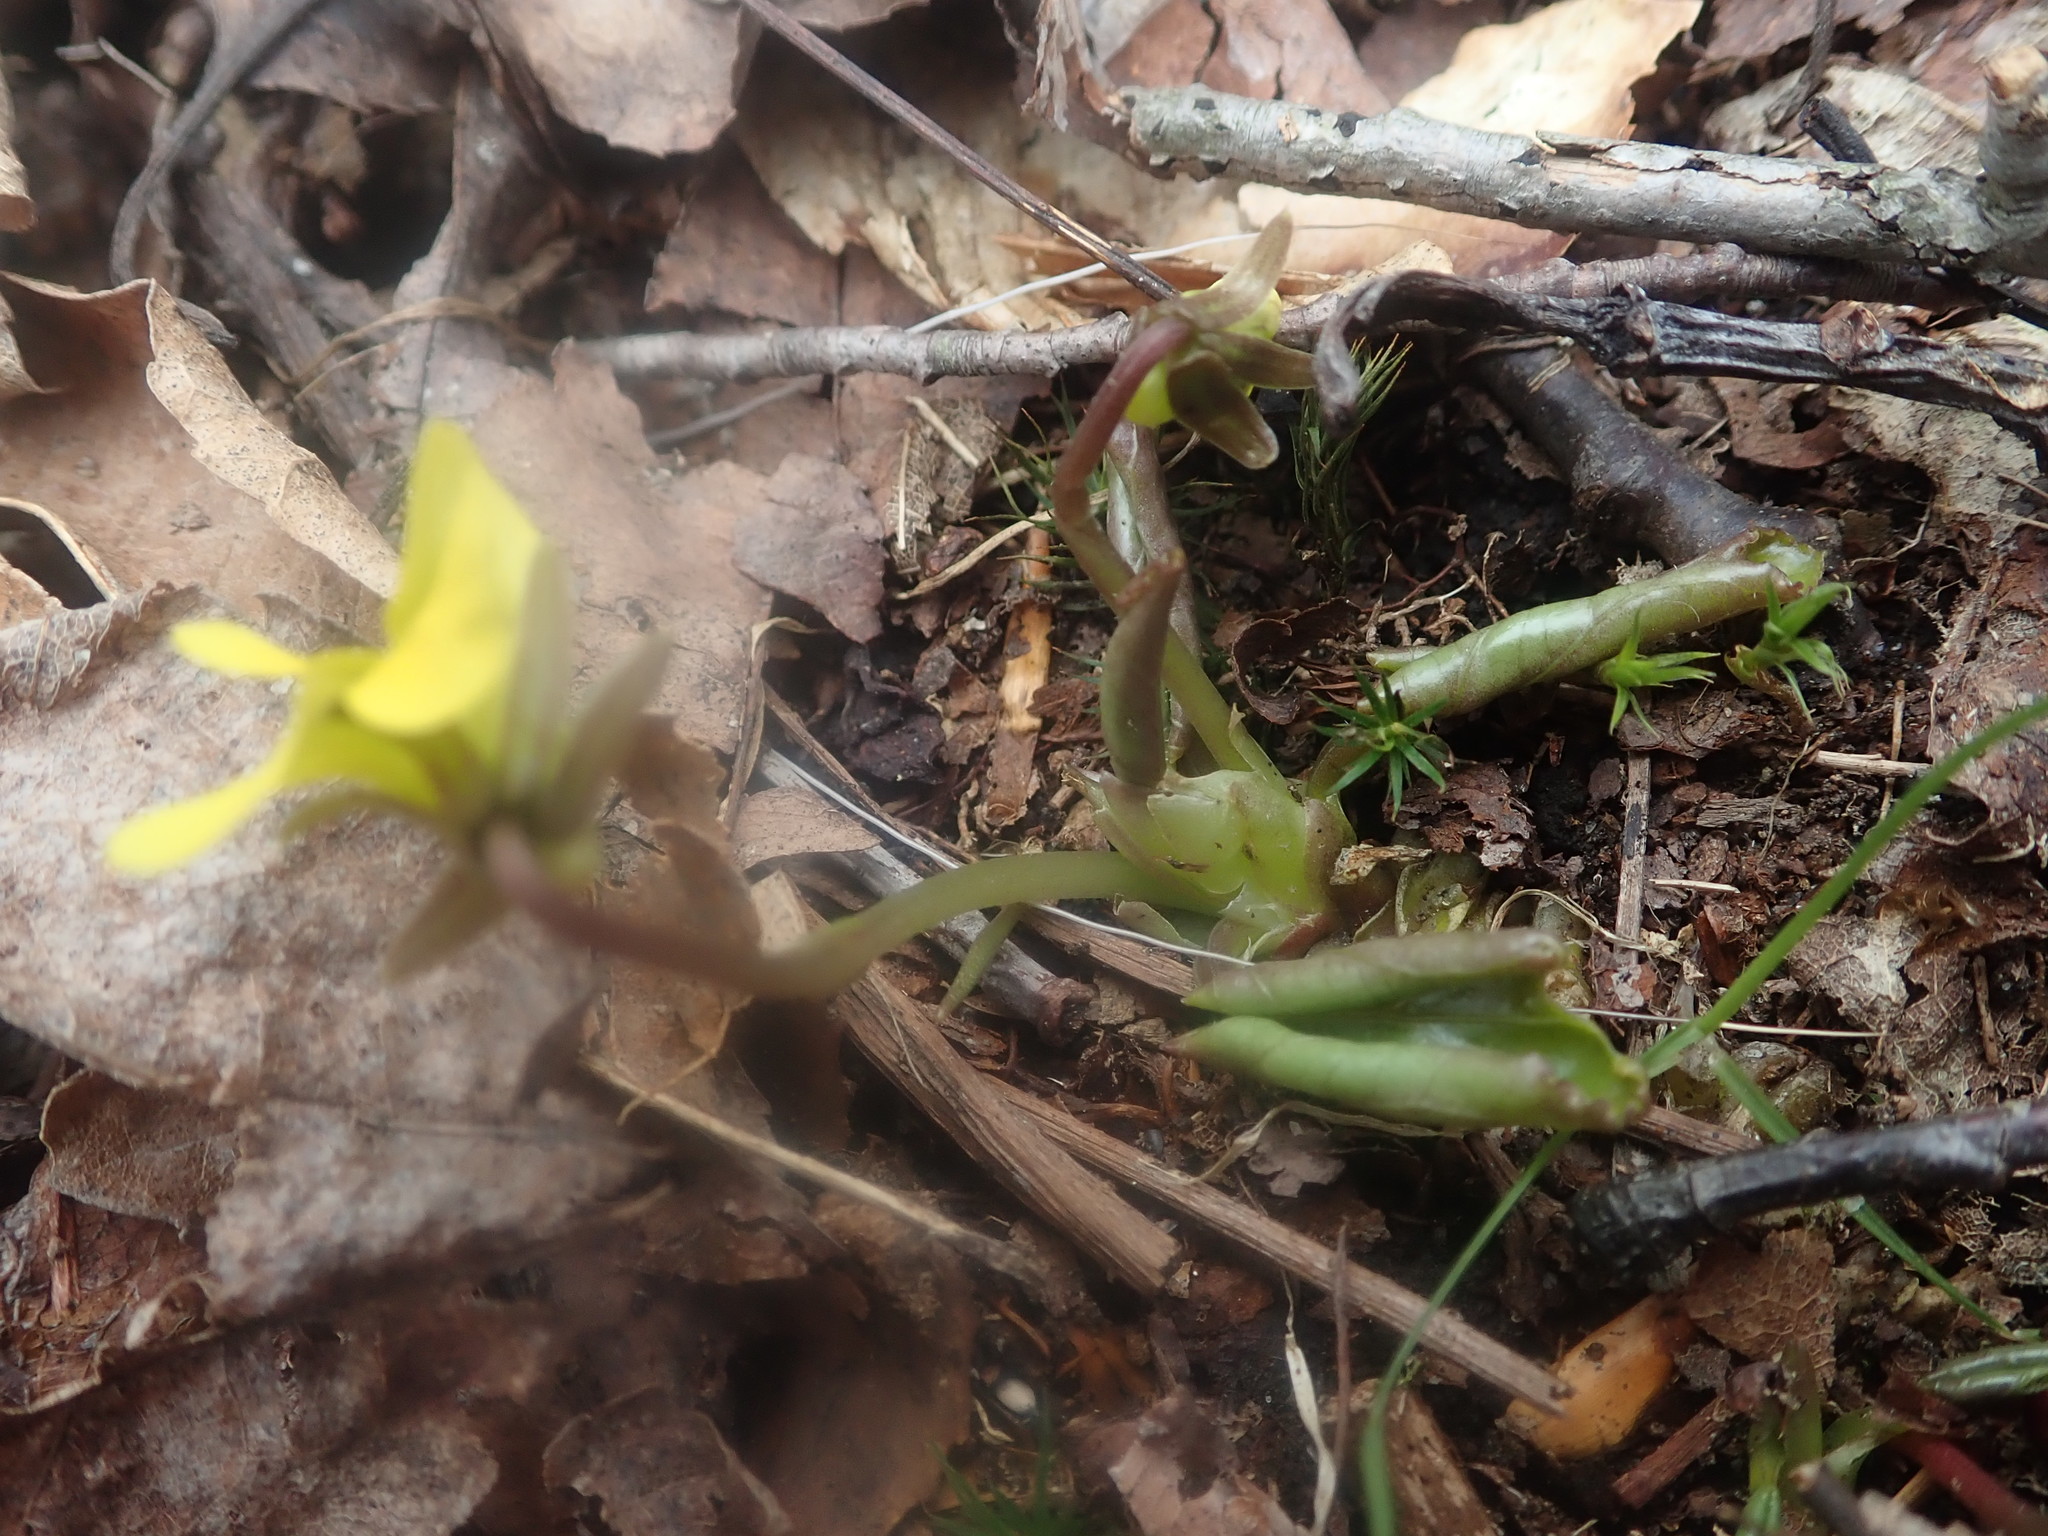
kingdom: Plantae
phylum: Tracheophyta
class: Magnoliopsida
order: Malpighiales
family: Violaceae
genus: Viola
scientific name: Viola rotundifolia
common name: Early yellow violet
